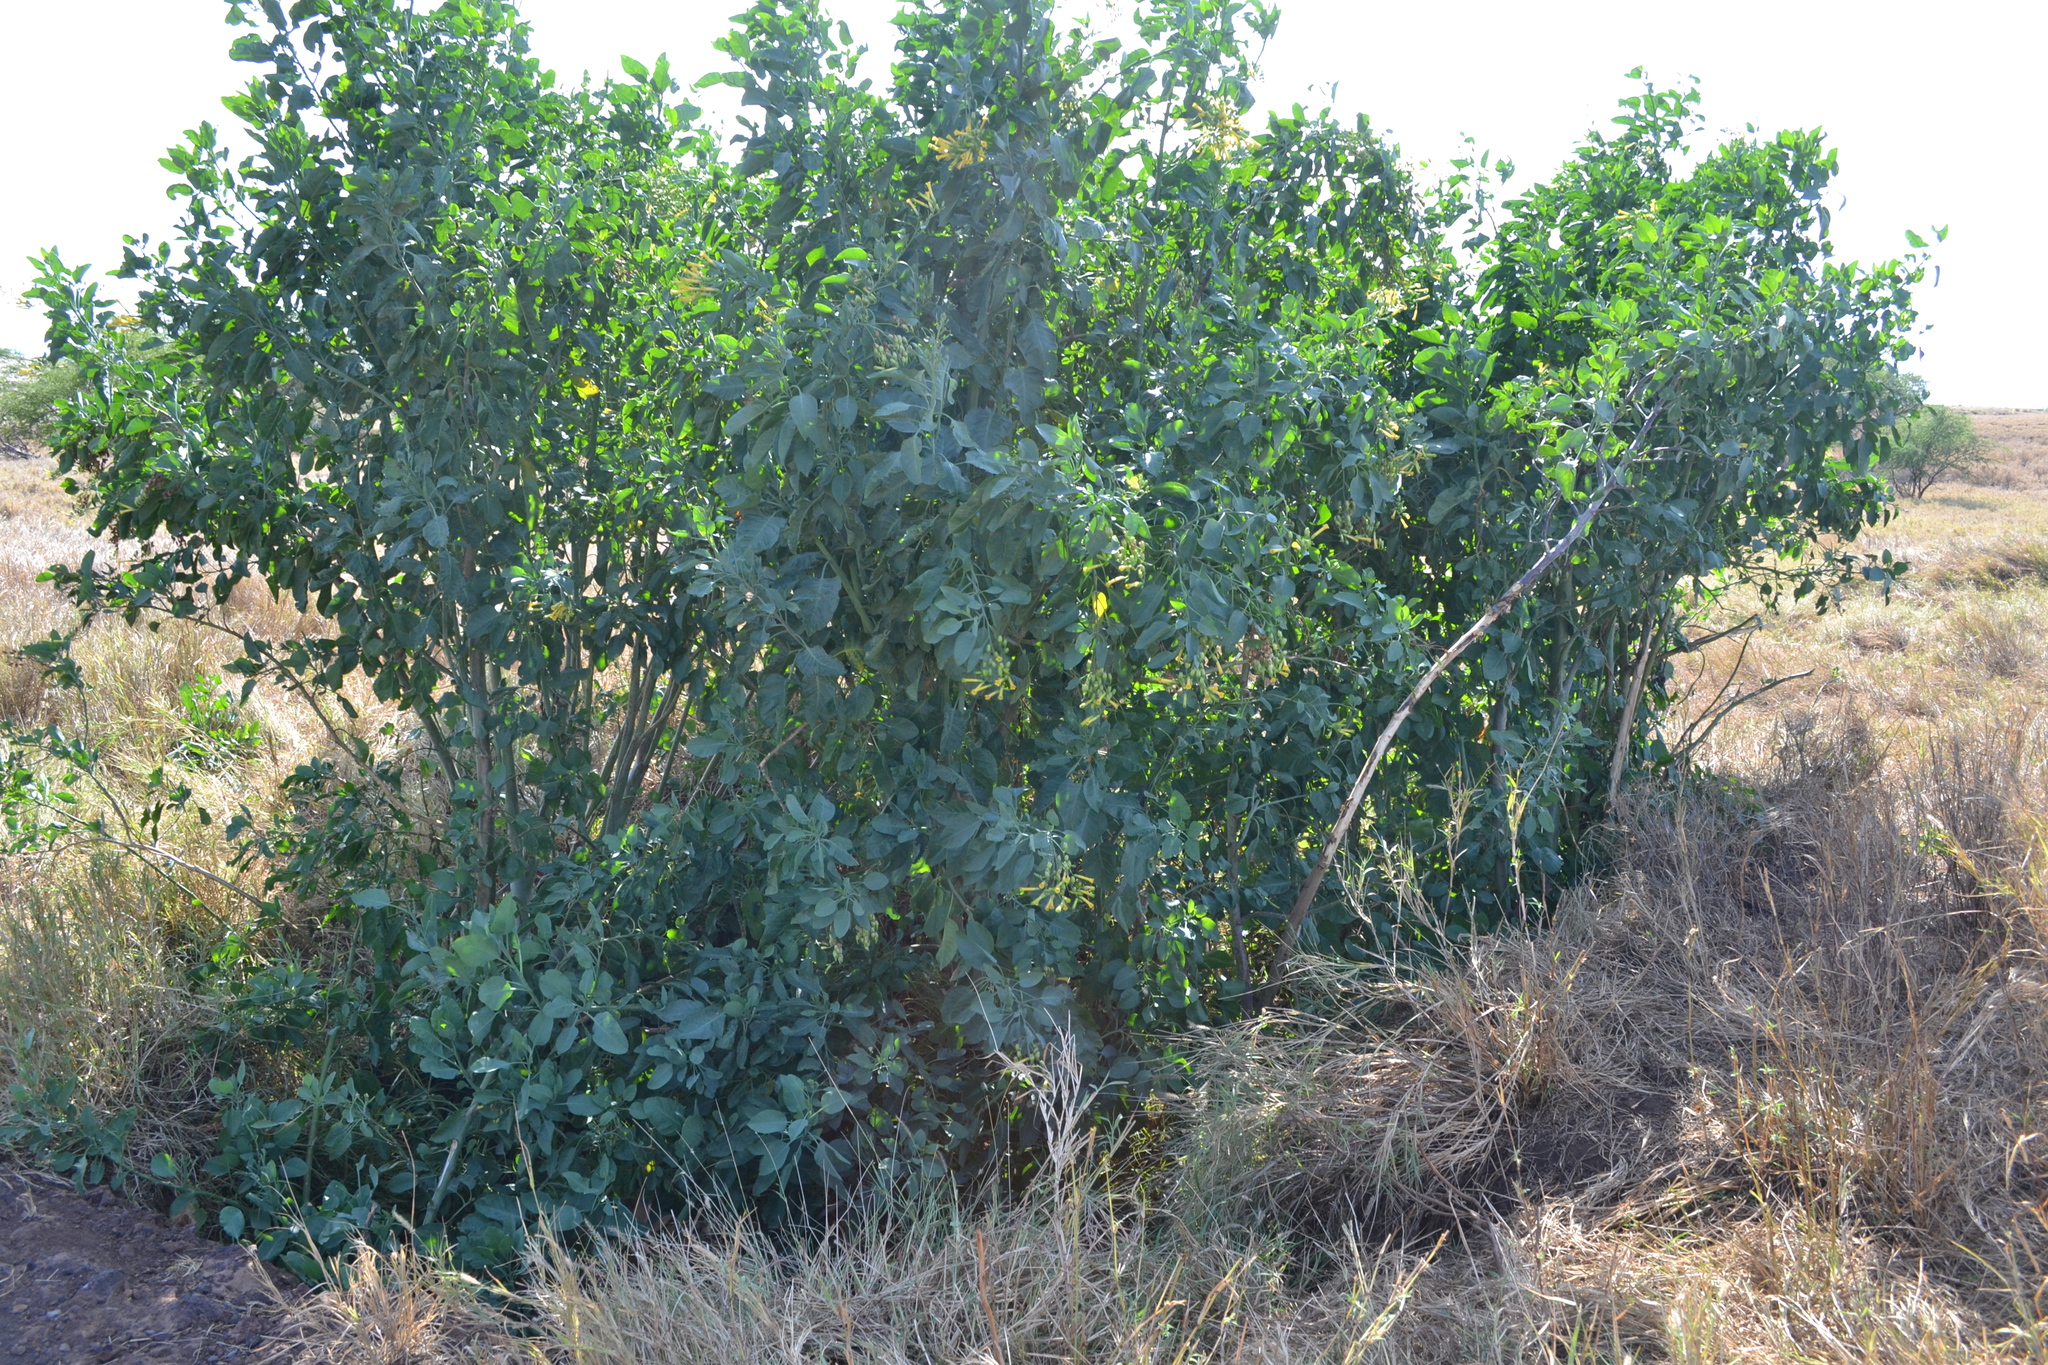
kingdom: Plantae
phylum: Tracheophyta
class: Magnoliopsida
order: Solanales
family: Solanaceae
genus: Nicotiana
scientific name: Nicotiana glauca
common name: Tree tobacco
